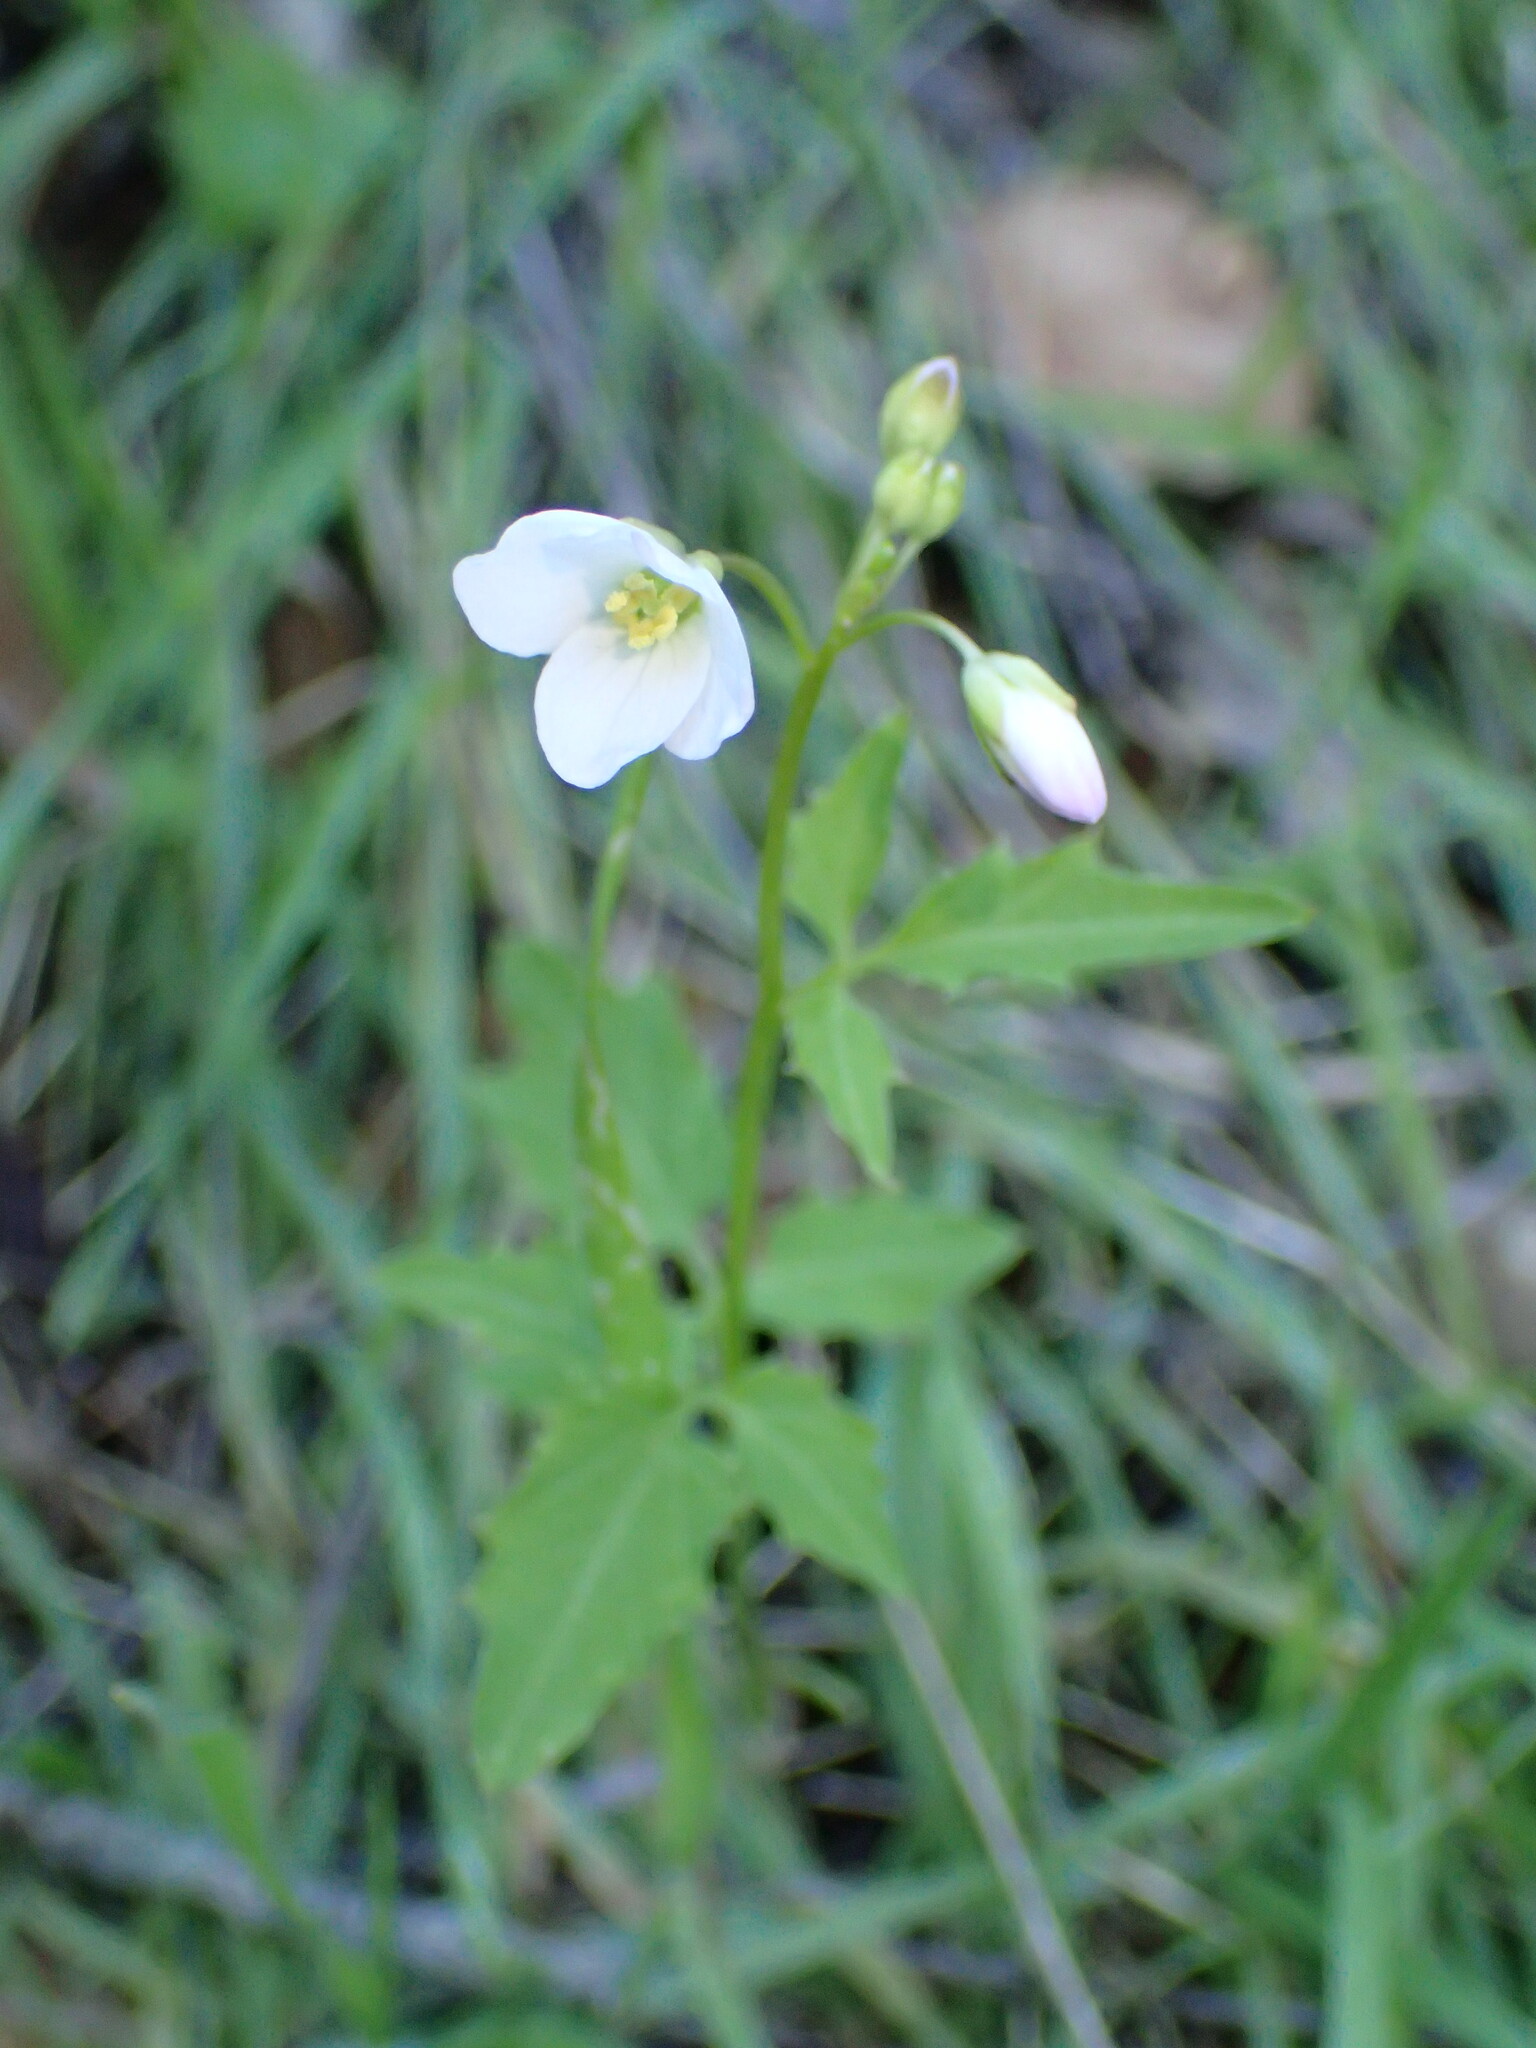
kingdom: Plantae
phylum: Tracheophyta
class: Magnoliopsida
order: Brassicales
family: Brassicaceae
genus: Cardamine
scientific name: Cardamine californica
